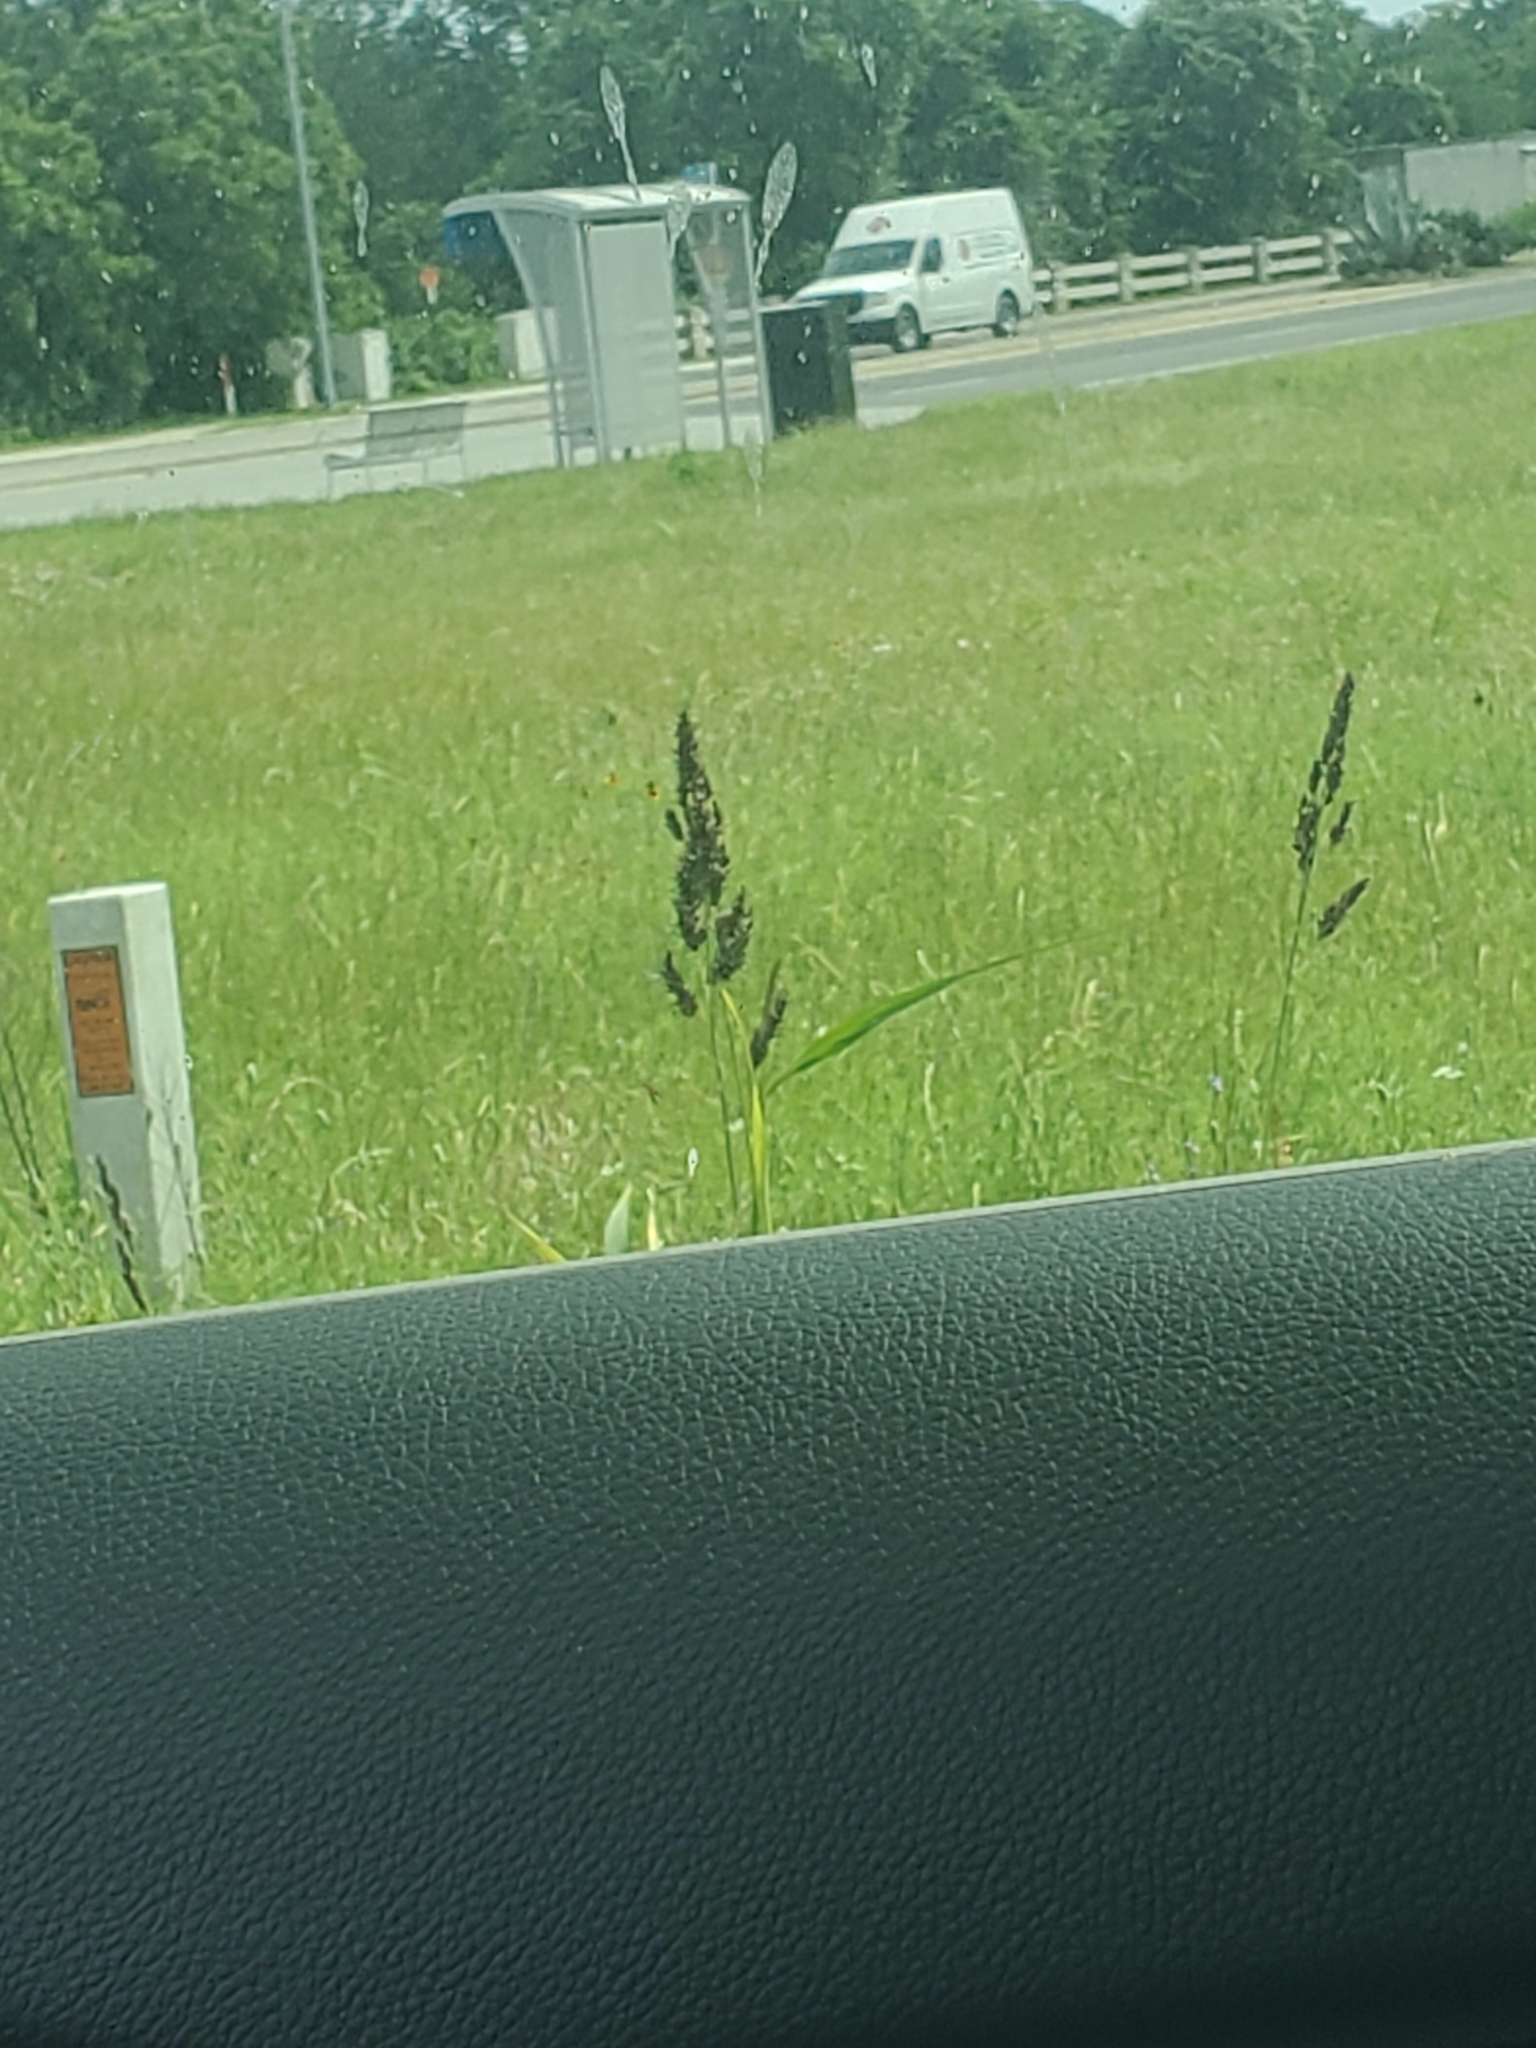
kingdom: Plantae
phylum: Tracheophyta
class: Liliopsida
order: Poales
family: Poaceae
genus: Sorghum
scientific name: Sorghum halepense
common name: Johnson-grass
